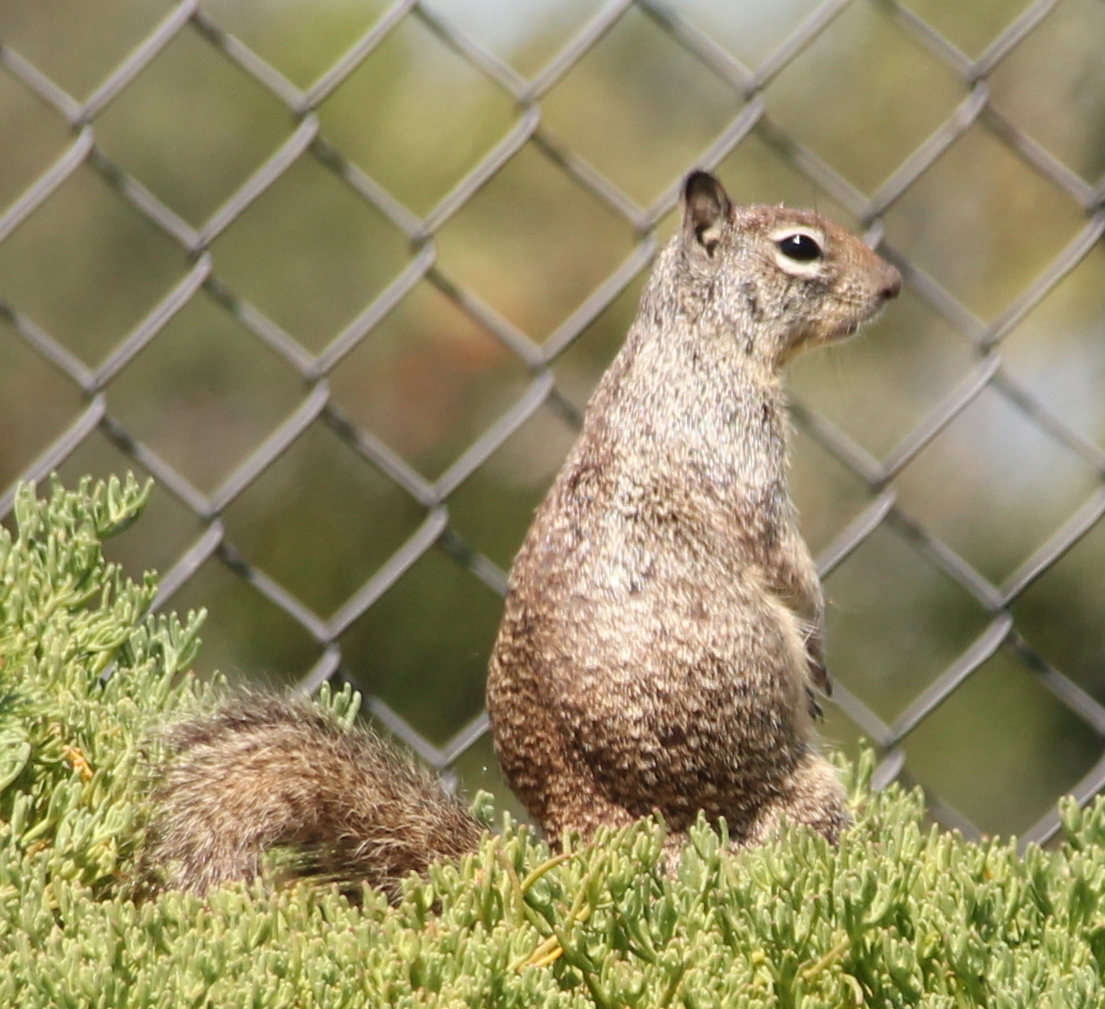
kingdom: Animalia
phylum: Chordata
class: Mammalia
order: Rodentia
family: Sciuridae
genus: Otospermophilus
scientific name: Otospermophilus beecheyi
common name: California ground squirrel
